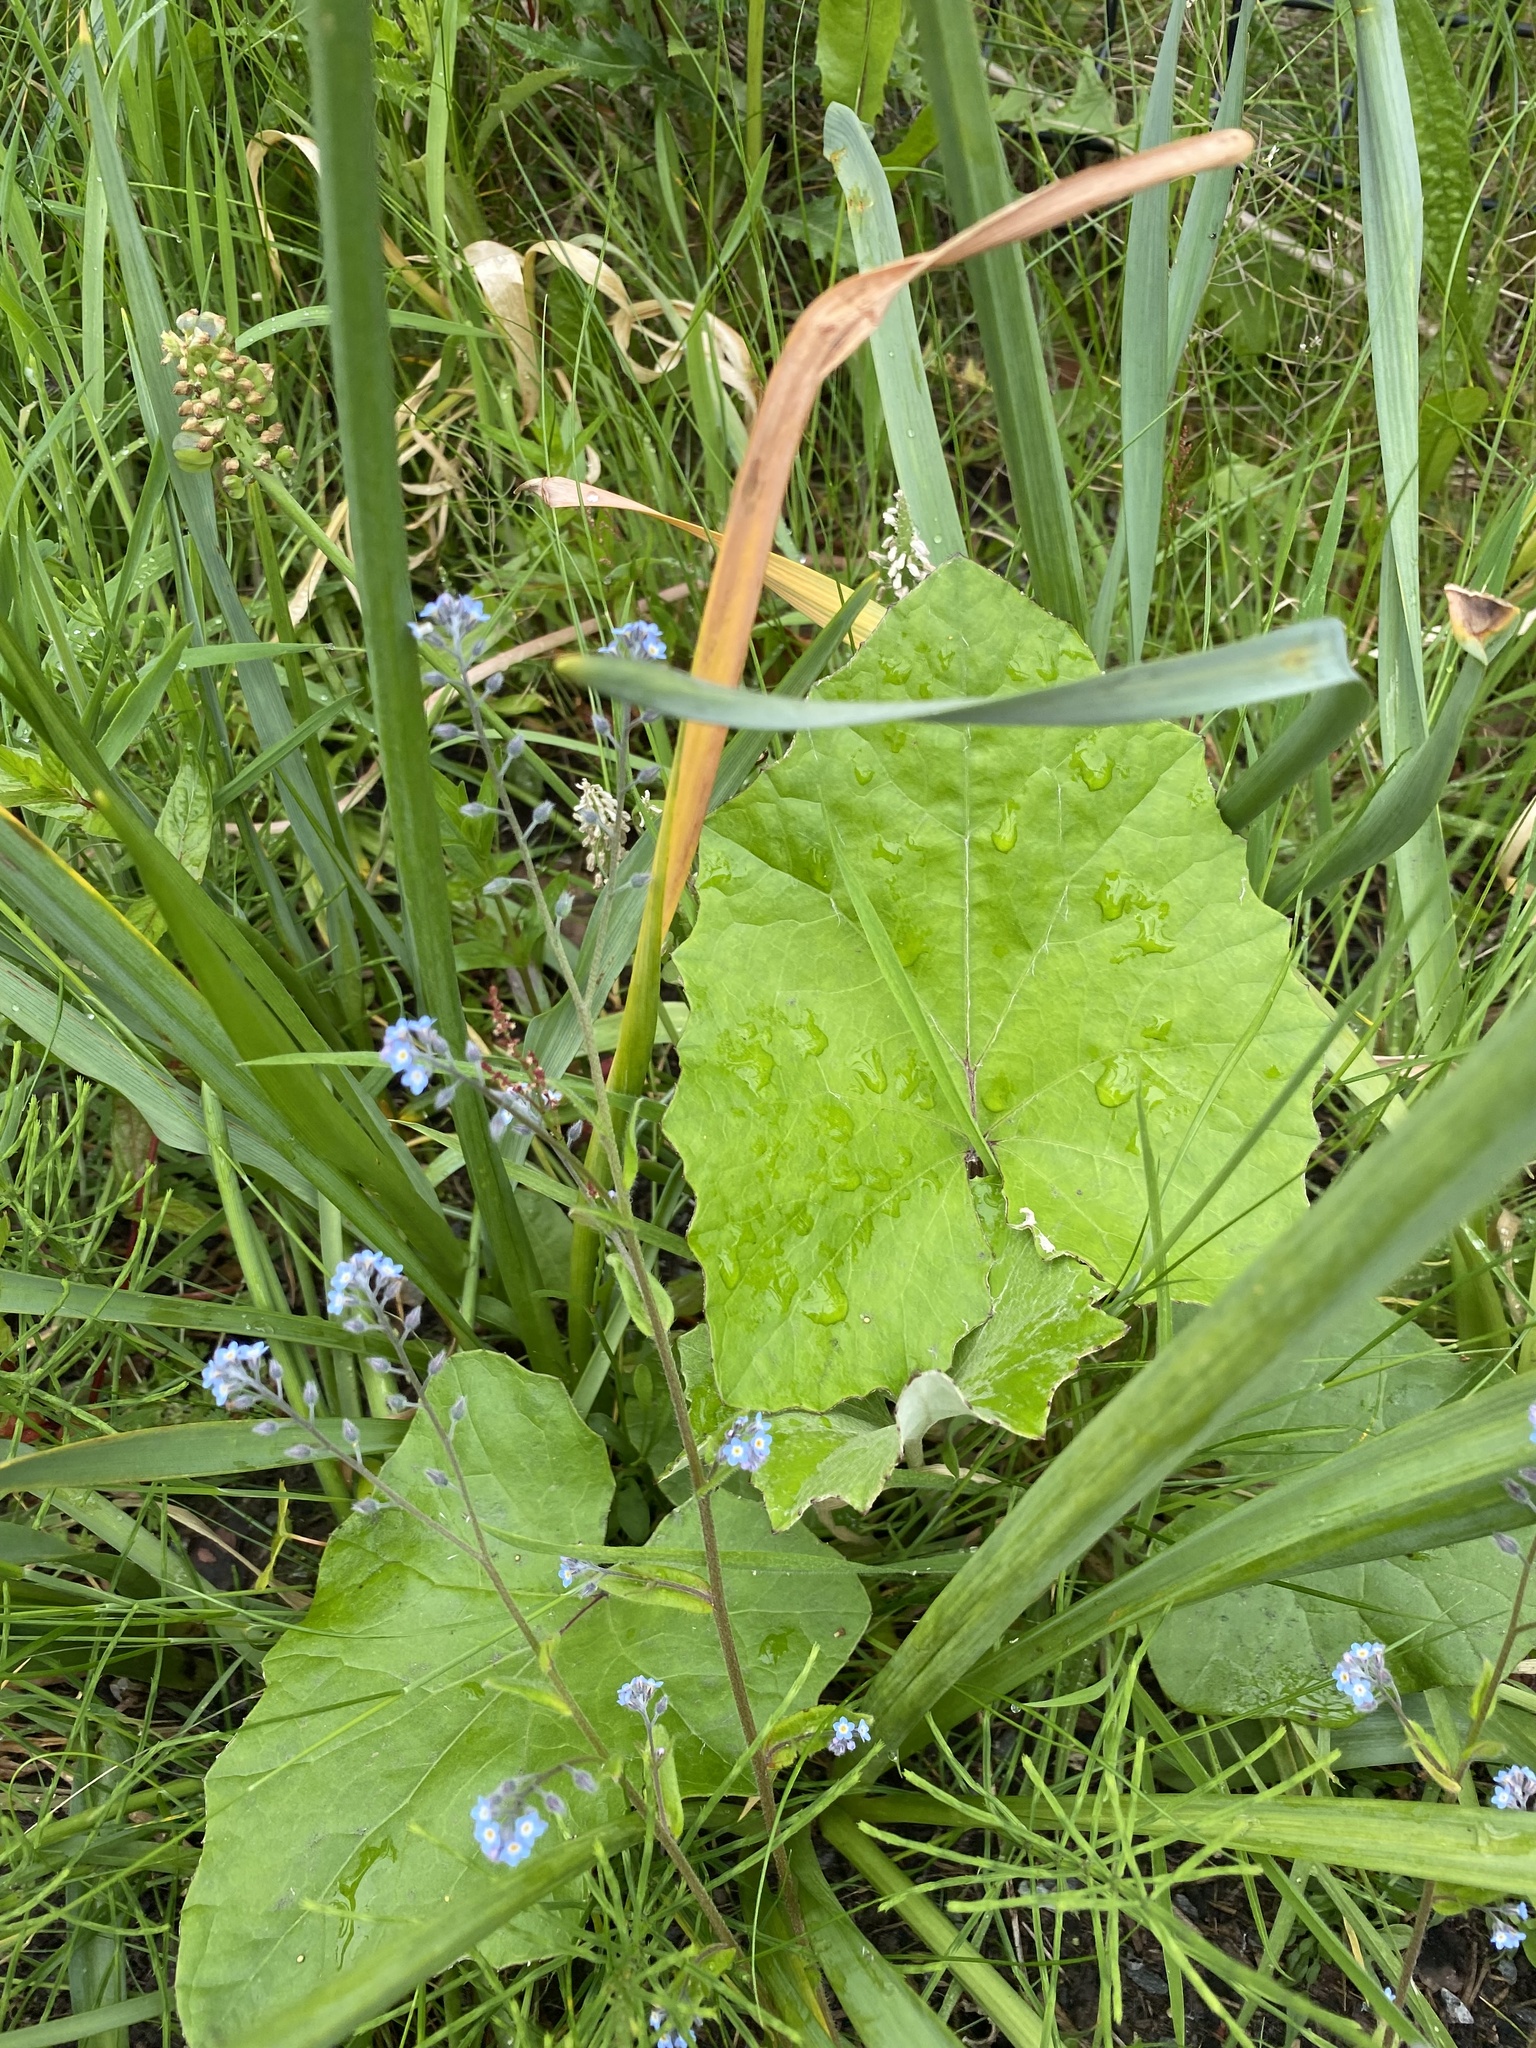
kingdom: Plantae
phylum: Tracheophyta
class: Magnoliopsida
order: Asterales
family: Asteraceae
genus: Tussilago
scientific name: Tussilago farfara
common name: Coltsfoot
